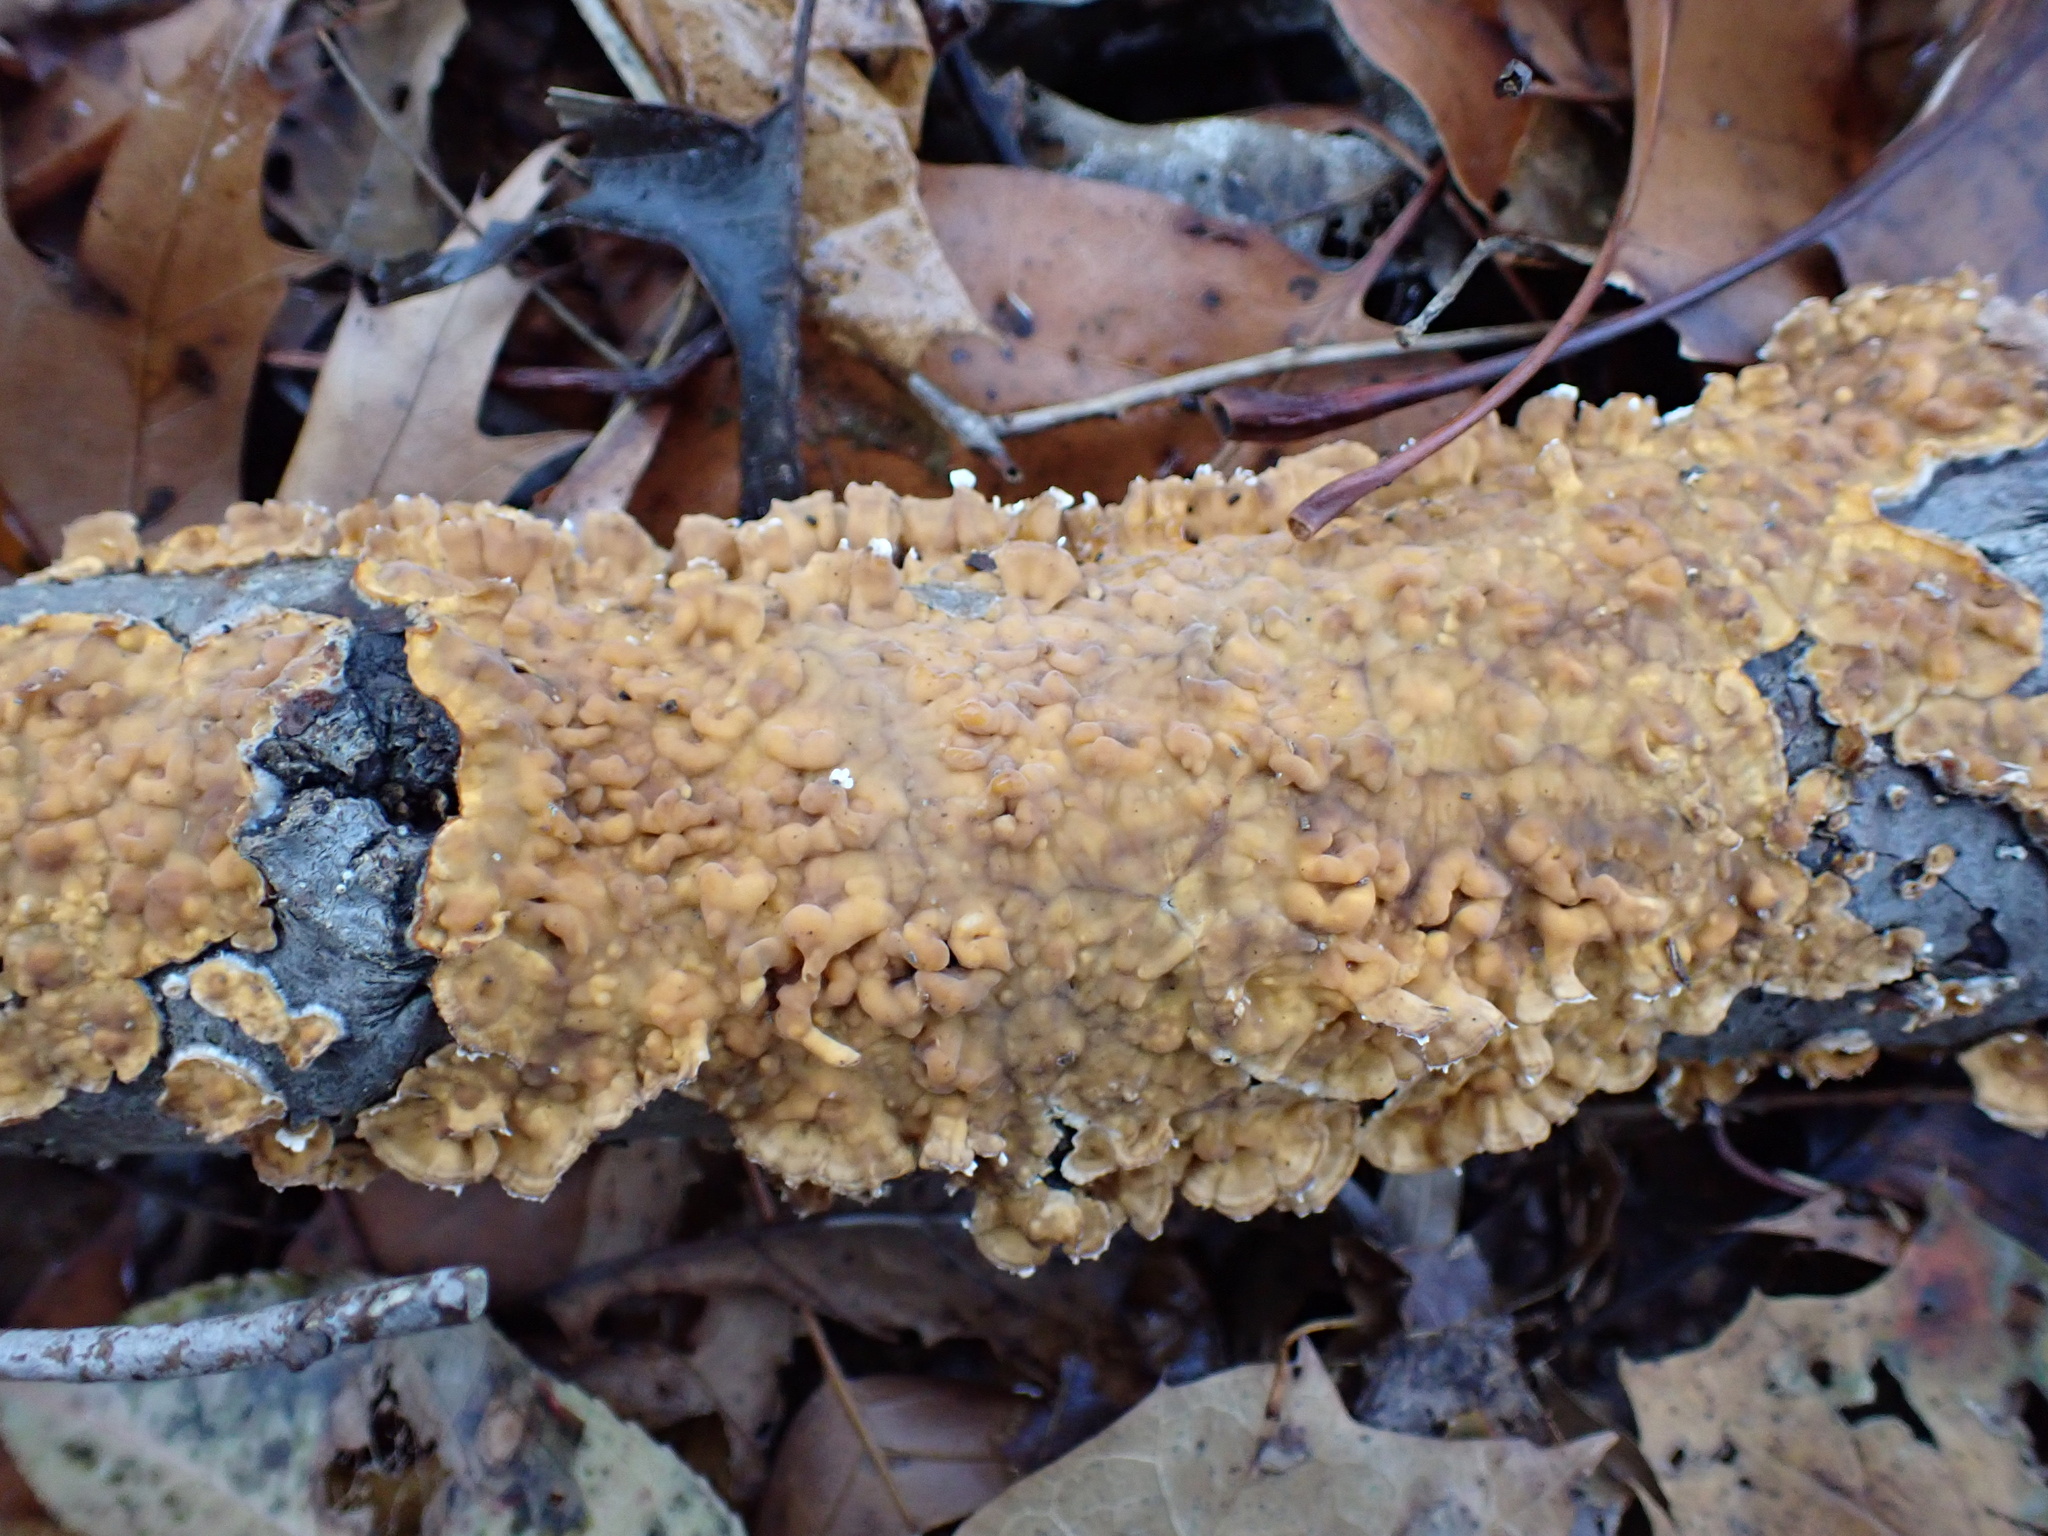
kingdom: Fungi
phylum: Basidiomycota
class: Agaricomycetes
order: Russulales
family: Stereaceae
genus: Stereum
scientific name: Stereum complicatum
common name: Crowded parchment
